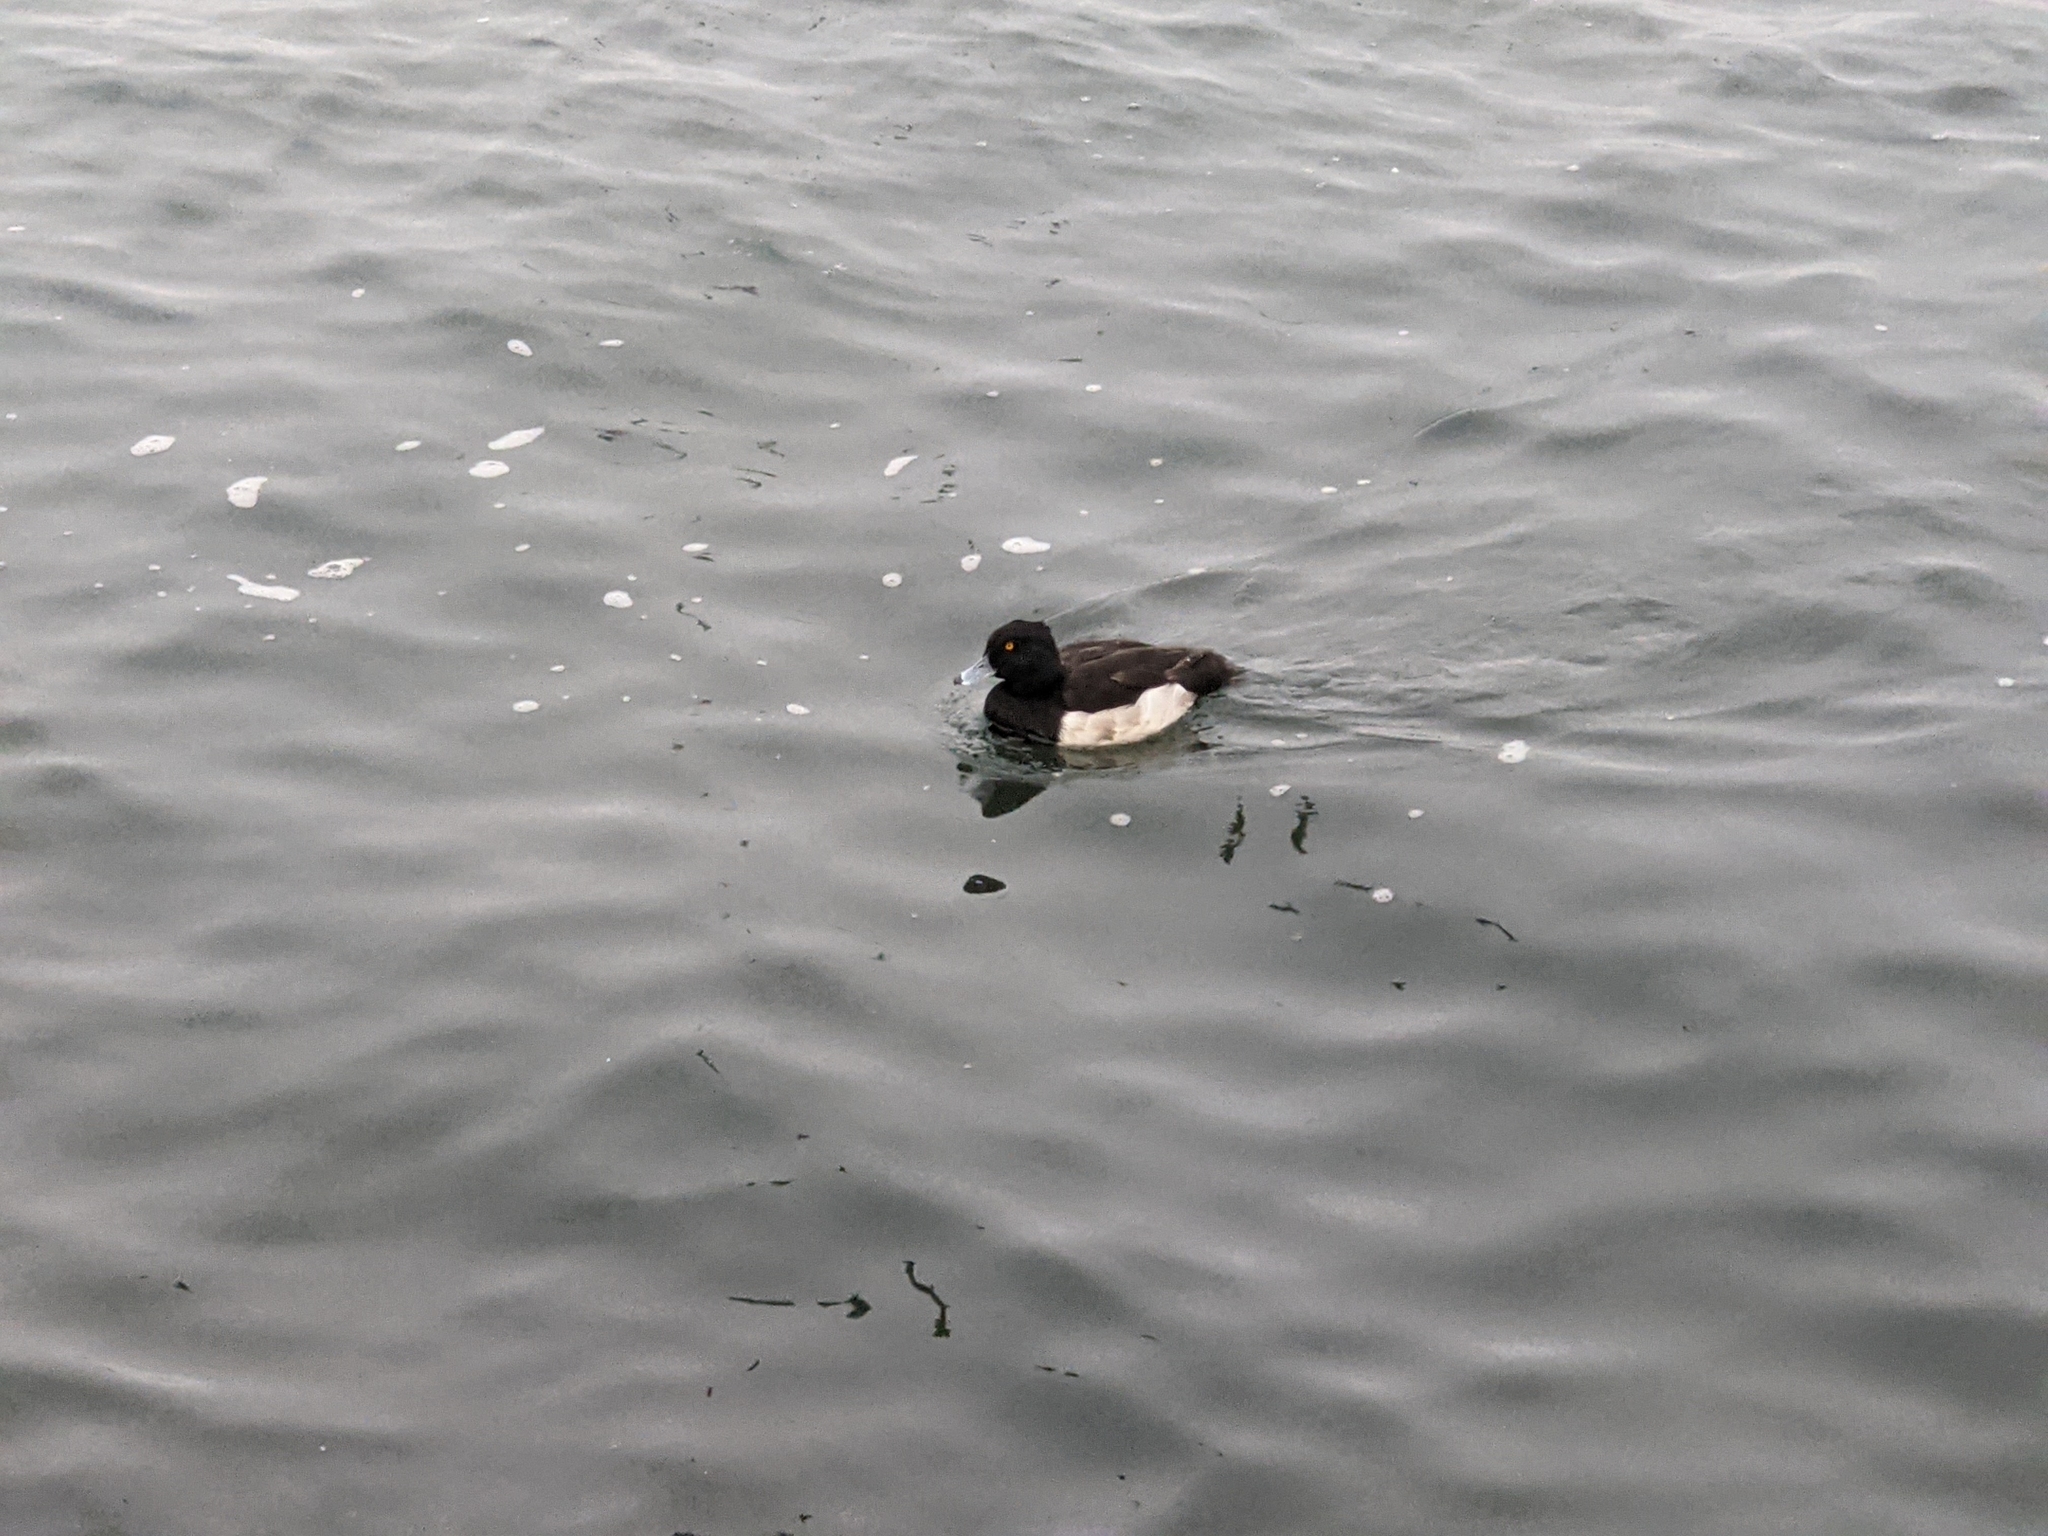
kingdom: Animalia
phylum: Chordata
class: Aves
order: Anseriformes
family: Anatidae
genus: Aythya
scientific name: Aythya fuligula
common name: Tufted duck
